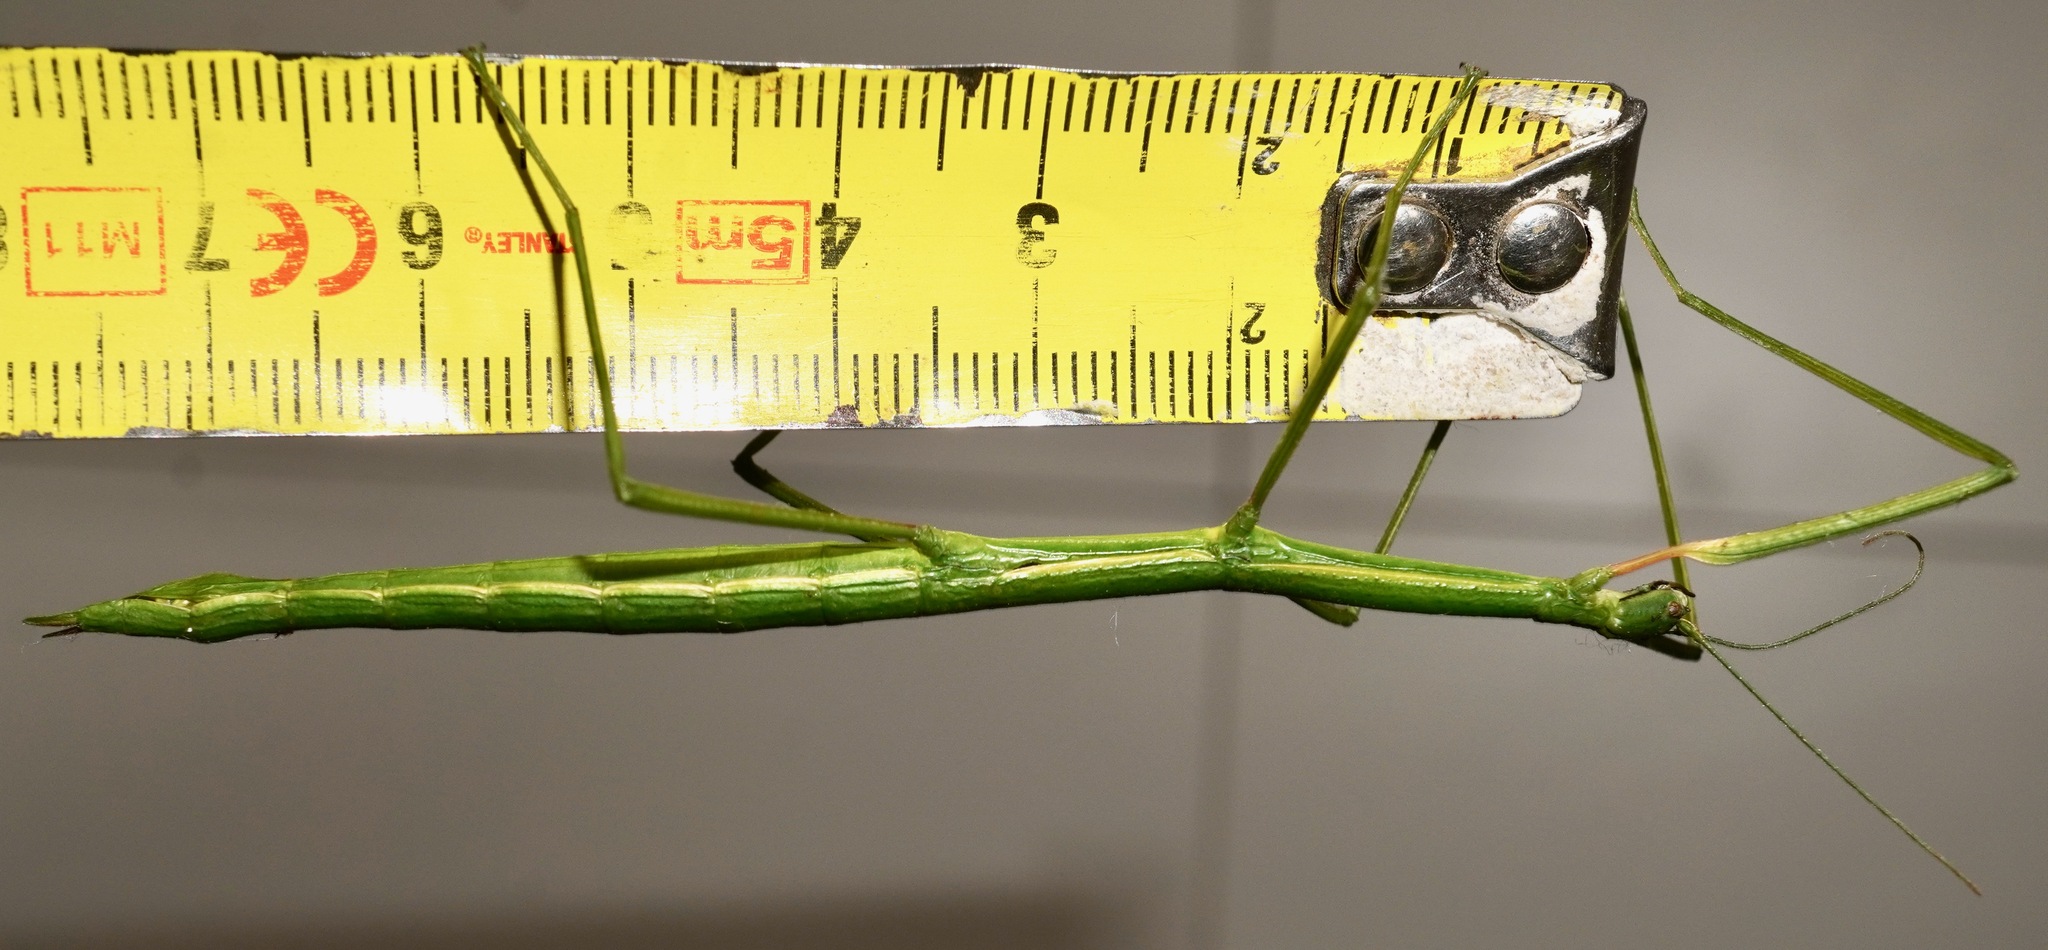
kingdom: Animalia
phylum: Arthropoda
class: Insecta
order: Phasmida
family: Phasmatidae
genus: Clitarchus
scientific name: Clitarchus hookeri
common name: Smooth stick insect
